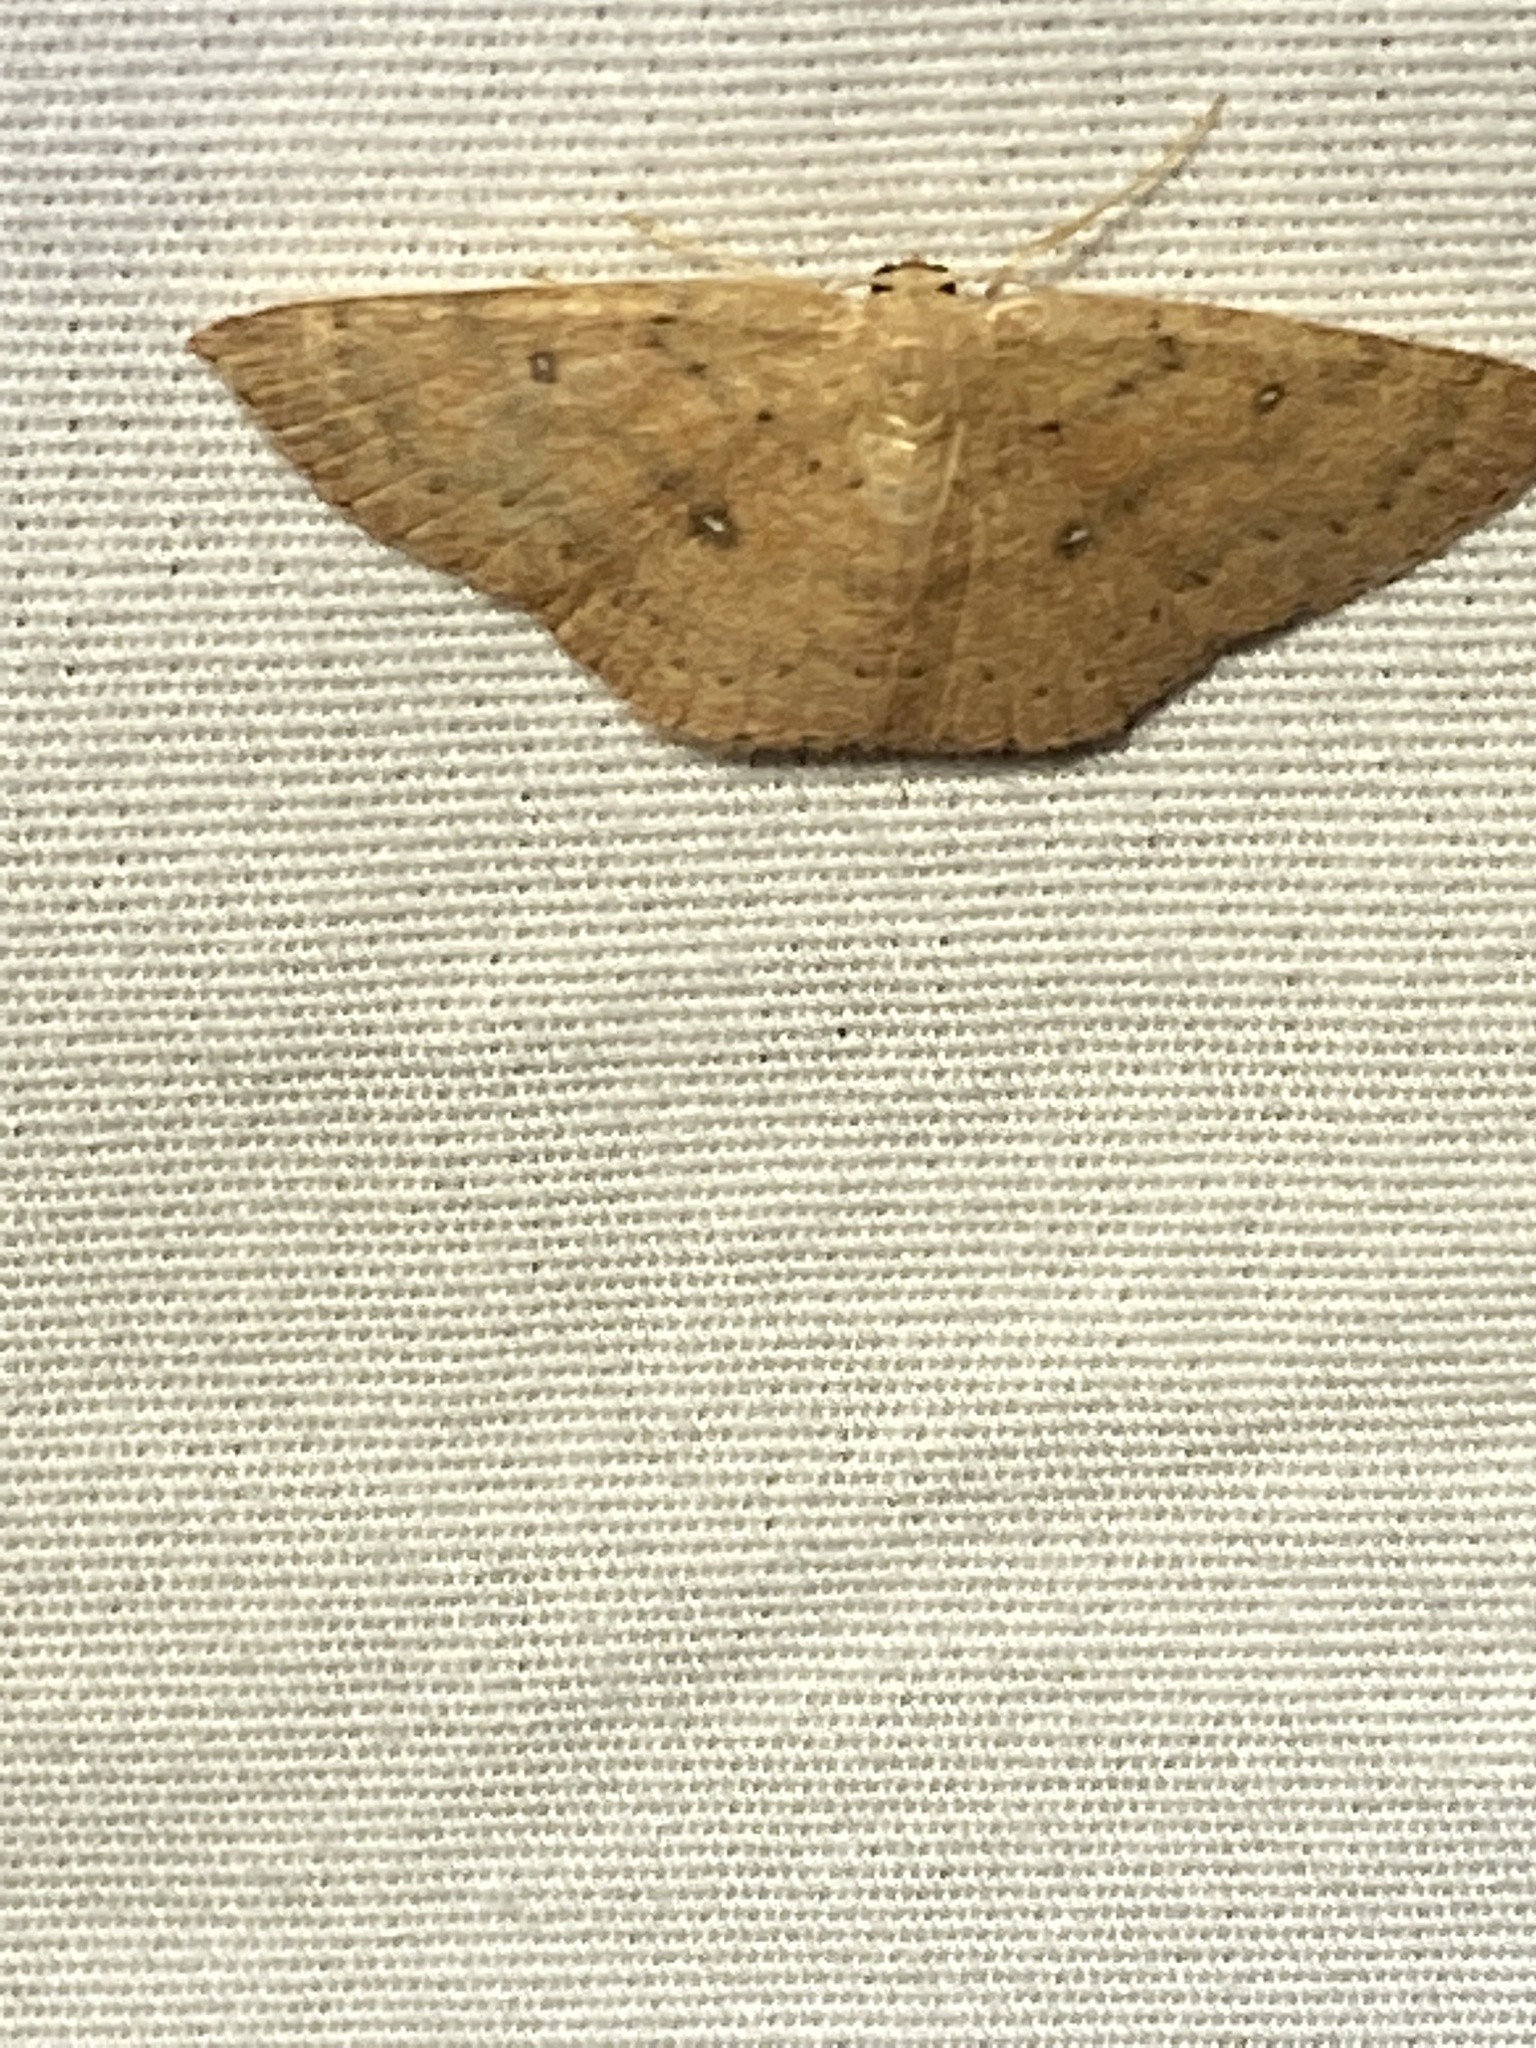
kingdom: Animalia
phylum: Arthropoda
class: Insecta
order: Lepidoptera
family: Geometridae
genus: Cyclophora
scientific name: Cyclophora packardi
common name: Packard's wave
